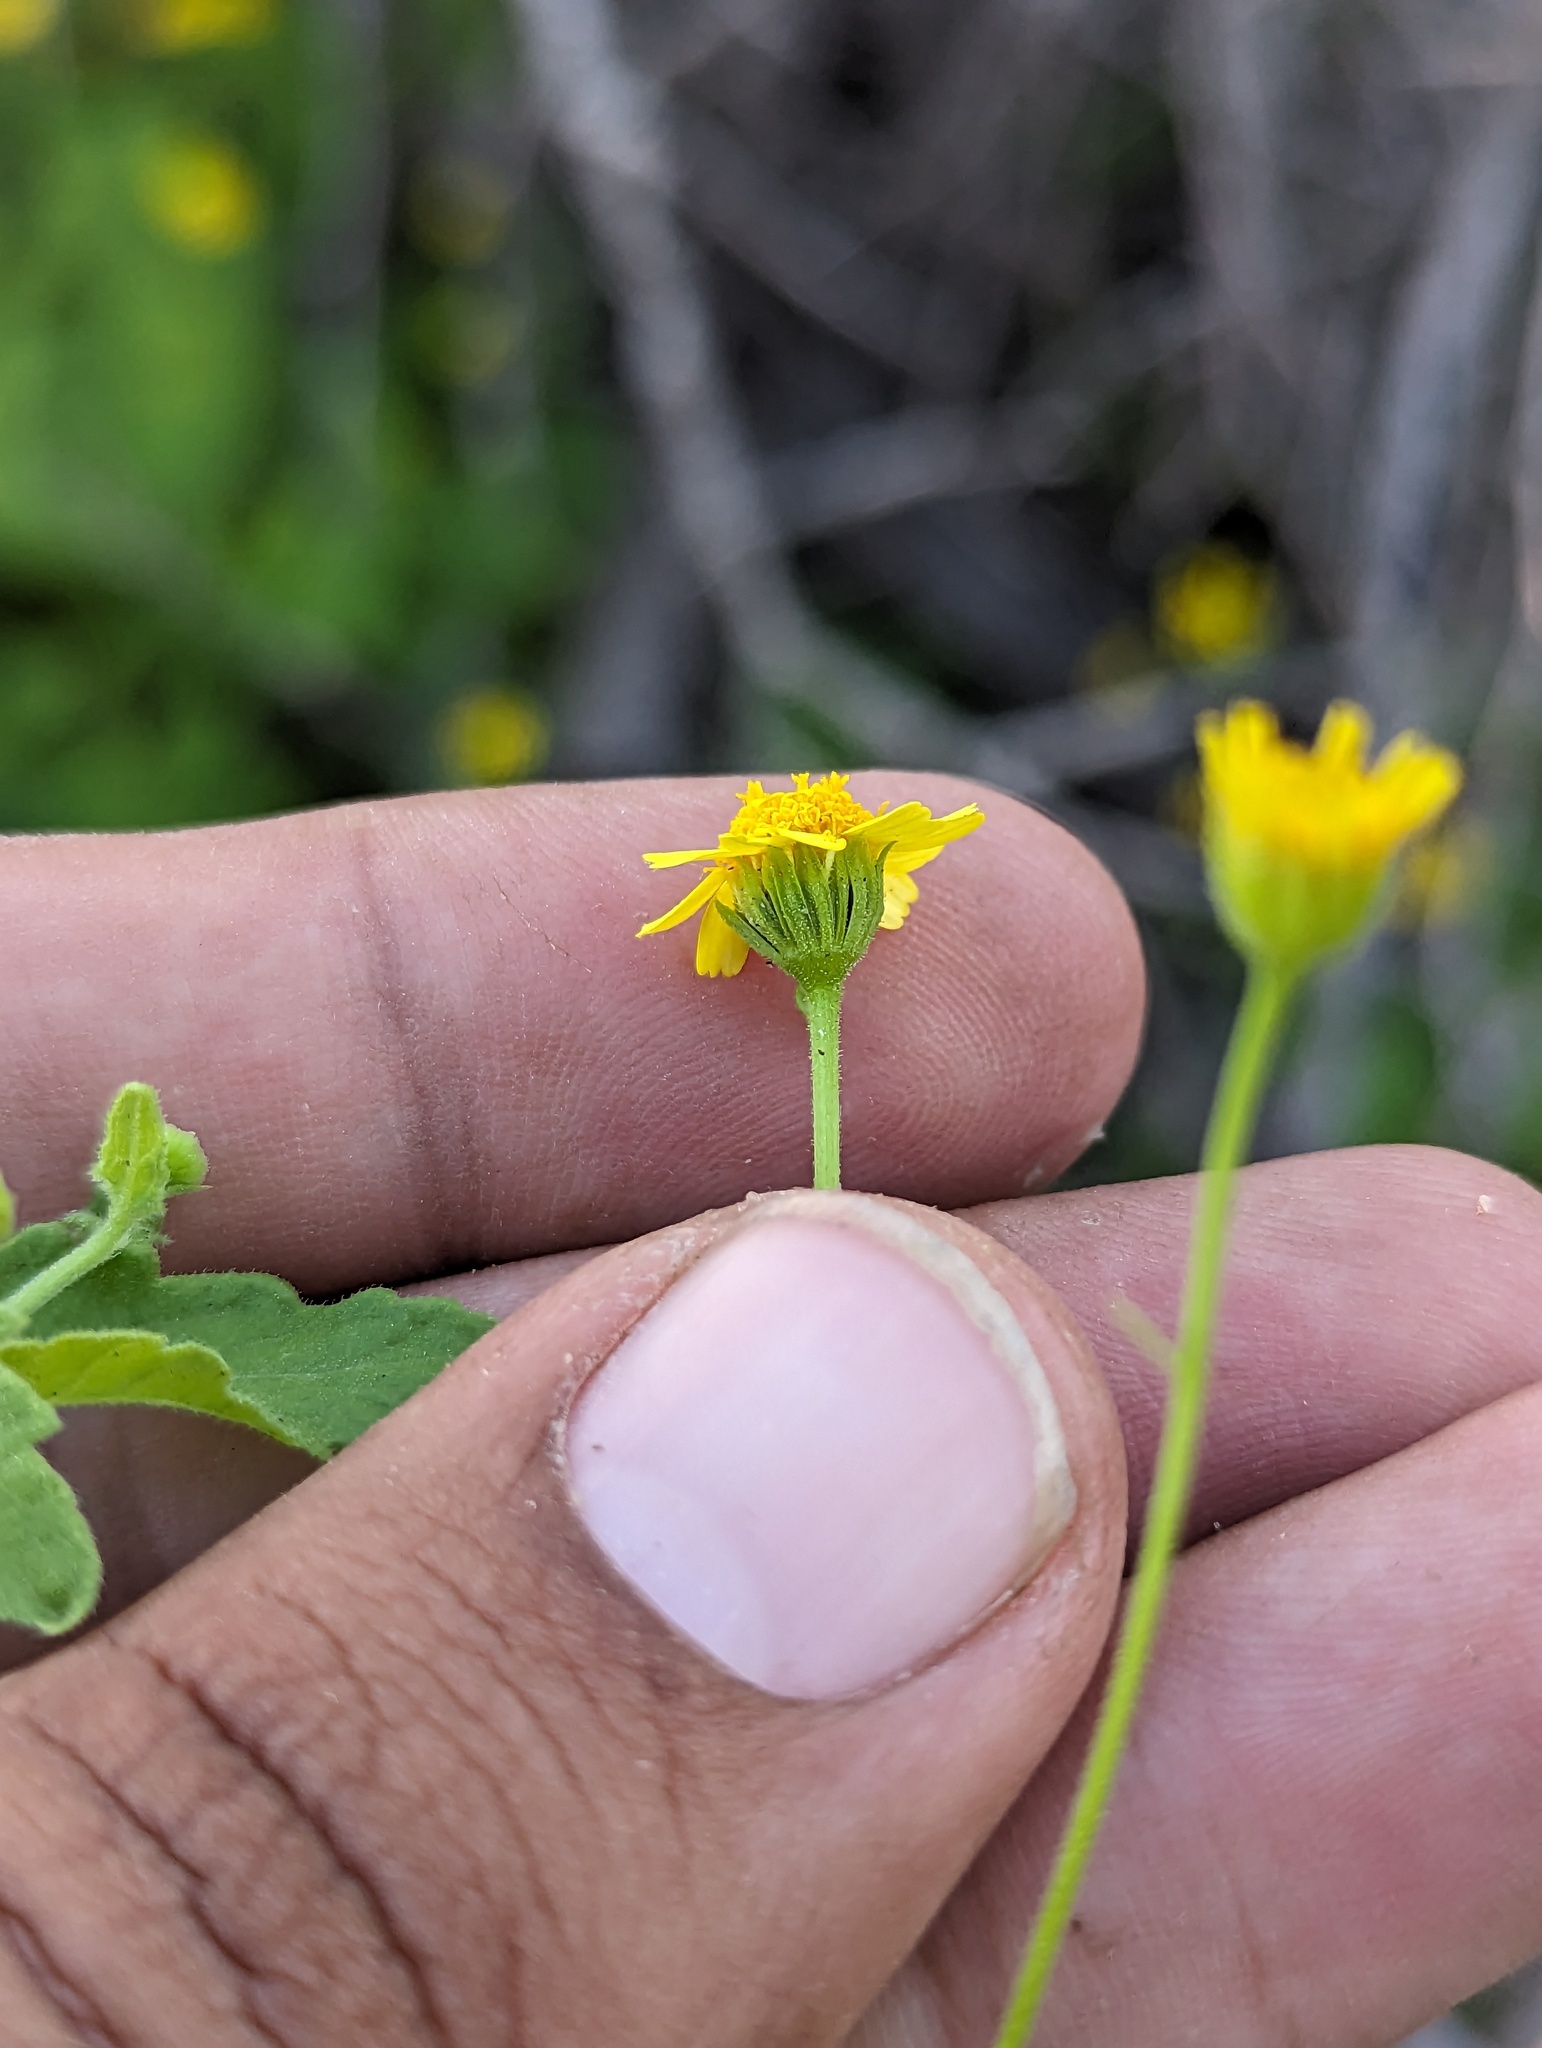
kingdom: Plantae
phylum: Tracheophyta
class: Magnoliopsida
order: Asterales
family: Asteraceae
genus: Perityle
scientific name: Perityle cuneata
